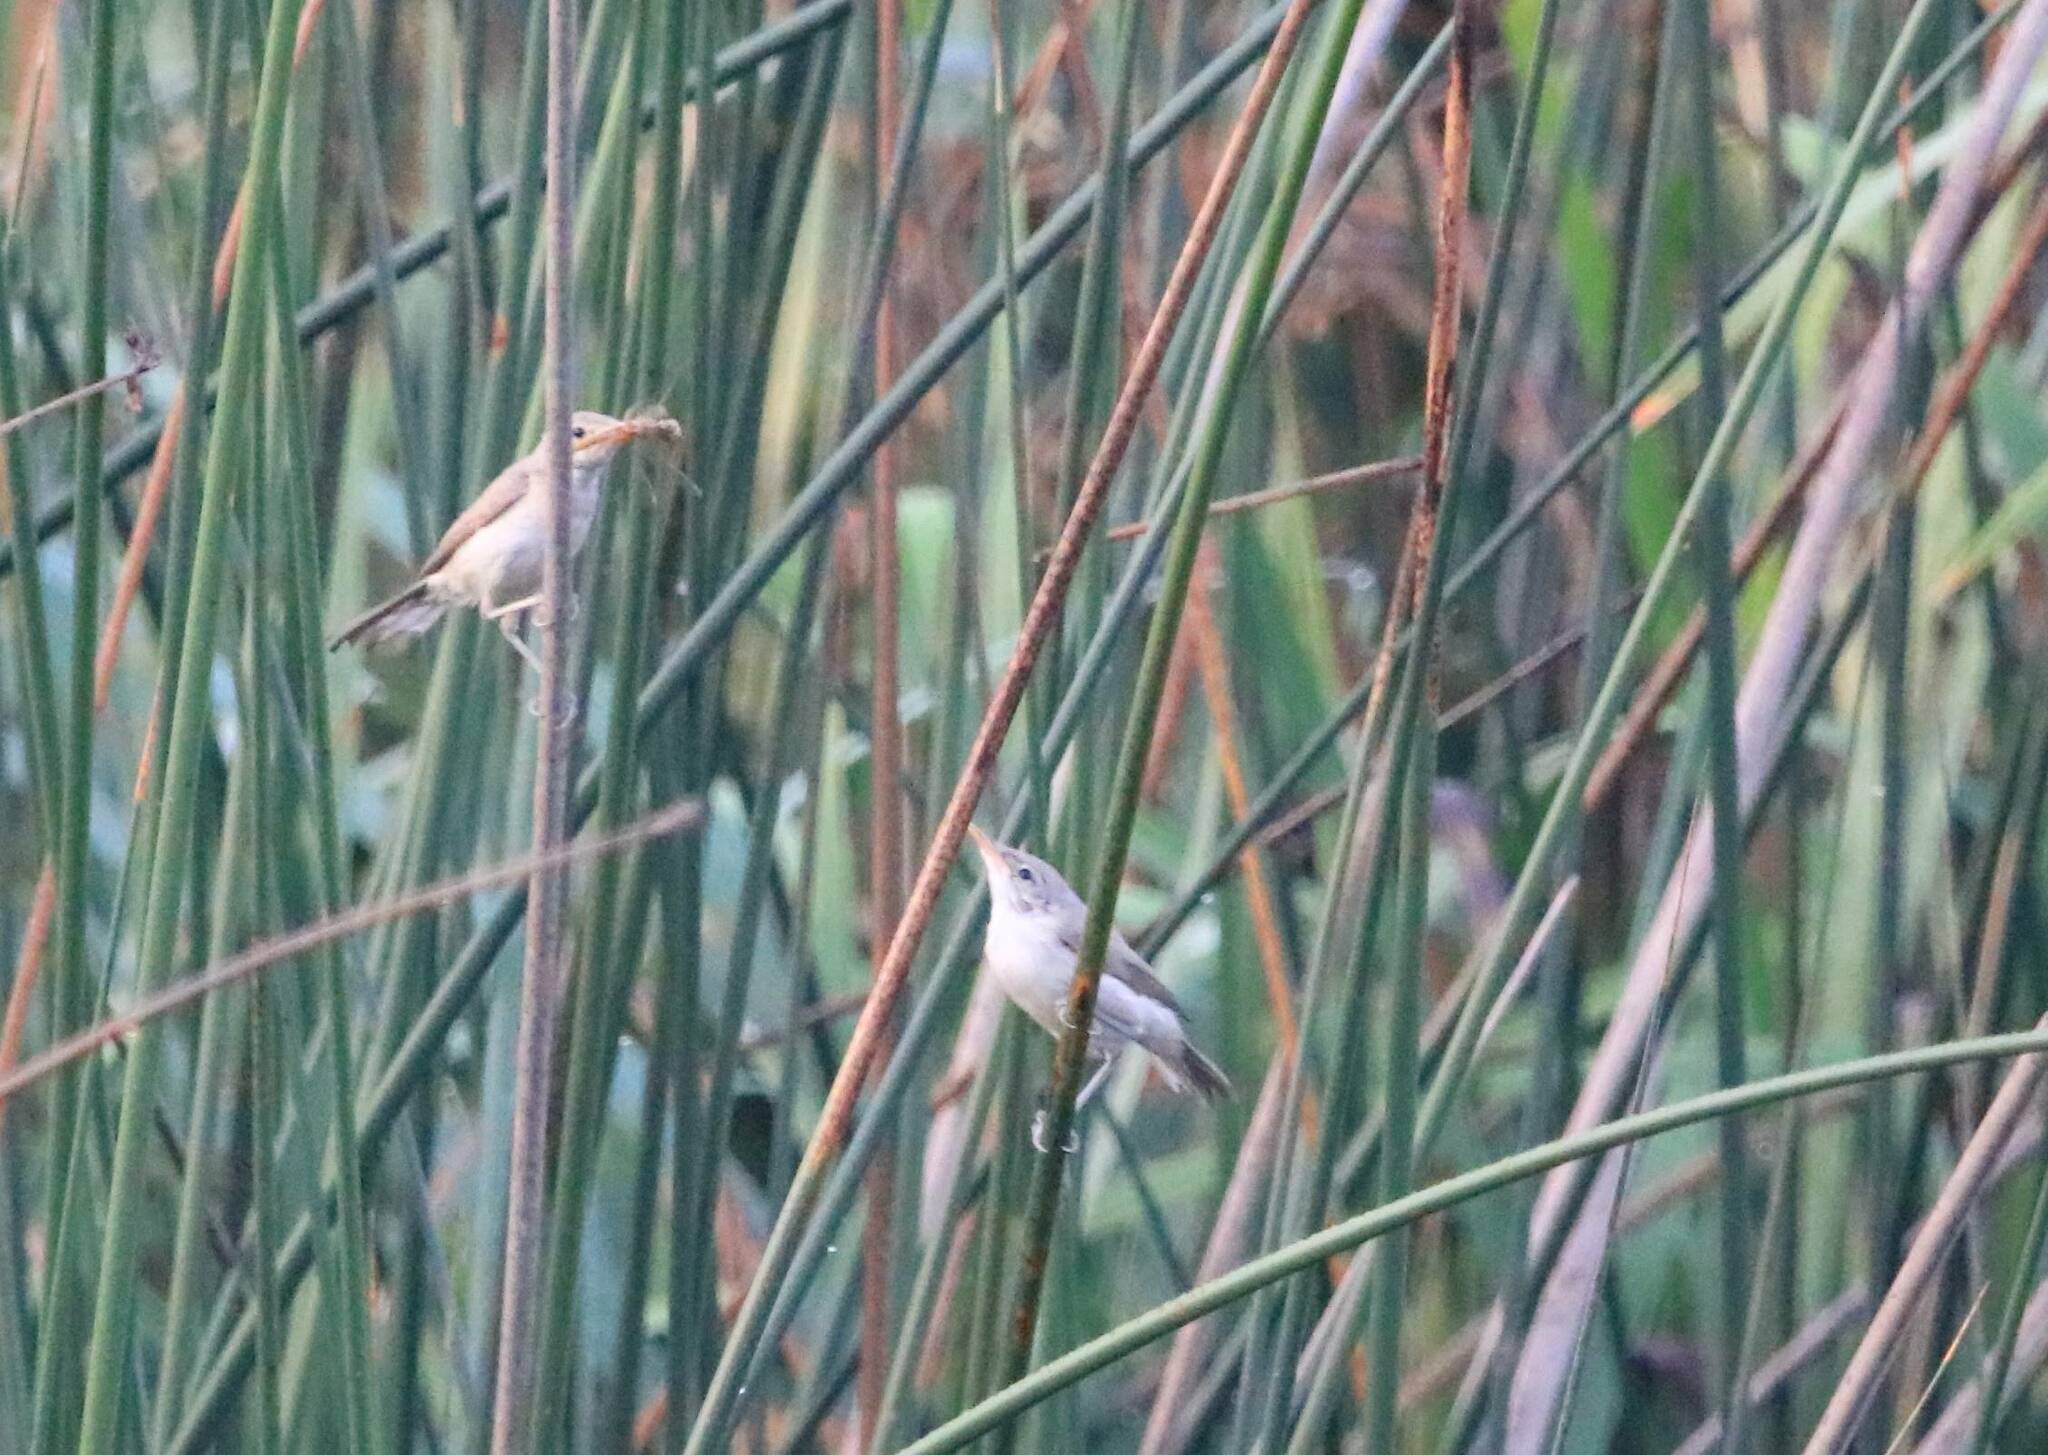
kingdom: Animalia
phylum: Chordata
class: Aves
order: Passeriformes
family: Acrocephalidae
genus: Acrocephalus
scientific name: Acrocephalus scirpaceus
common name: Eurasian reed warbler
